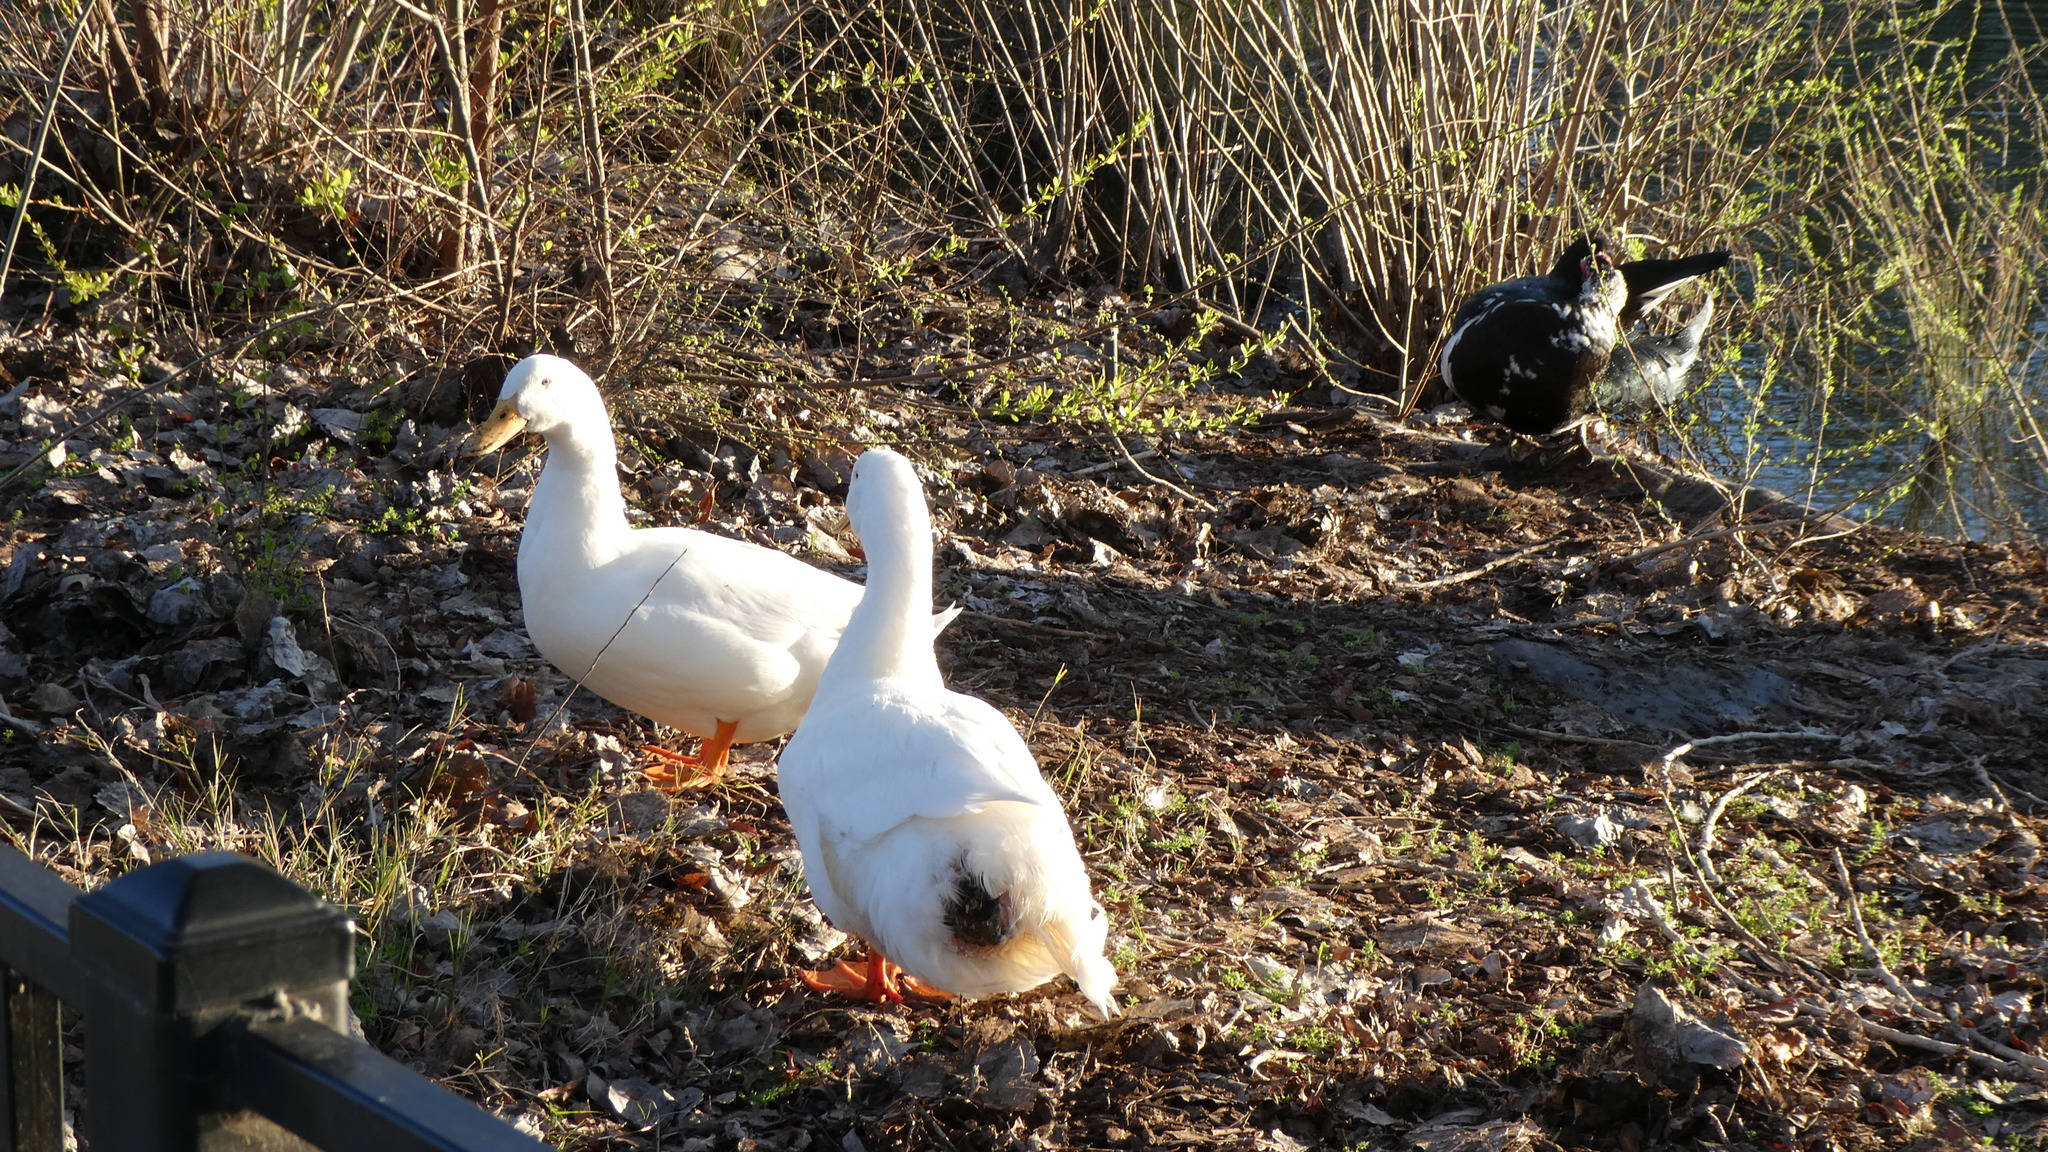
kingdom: Animalia
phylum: Chordata
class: Aves
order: Anseriformes
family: Anatidae
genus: Anas
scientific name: Anas platyrhynchos
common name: Mallard
